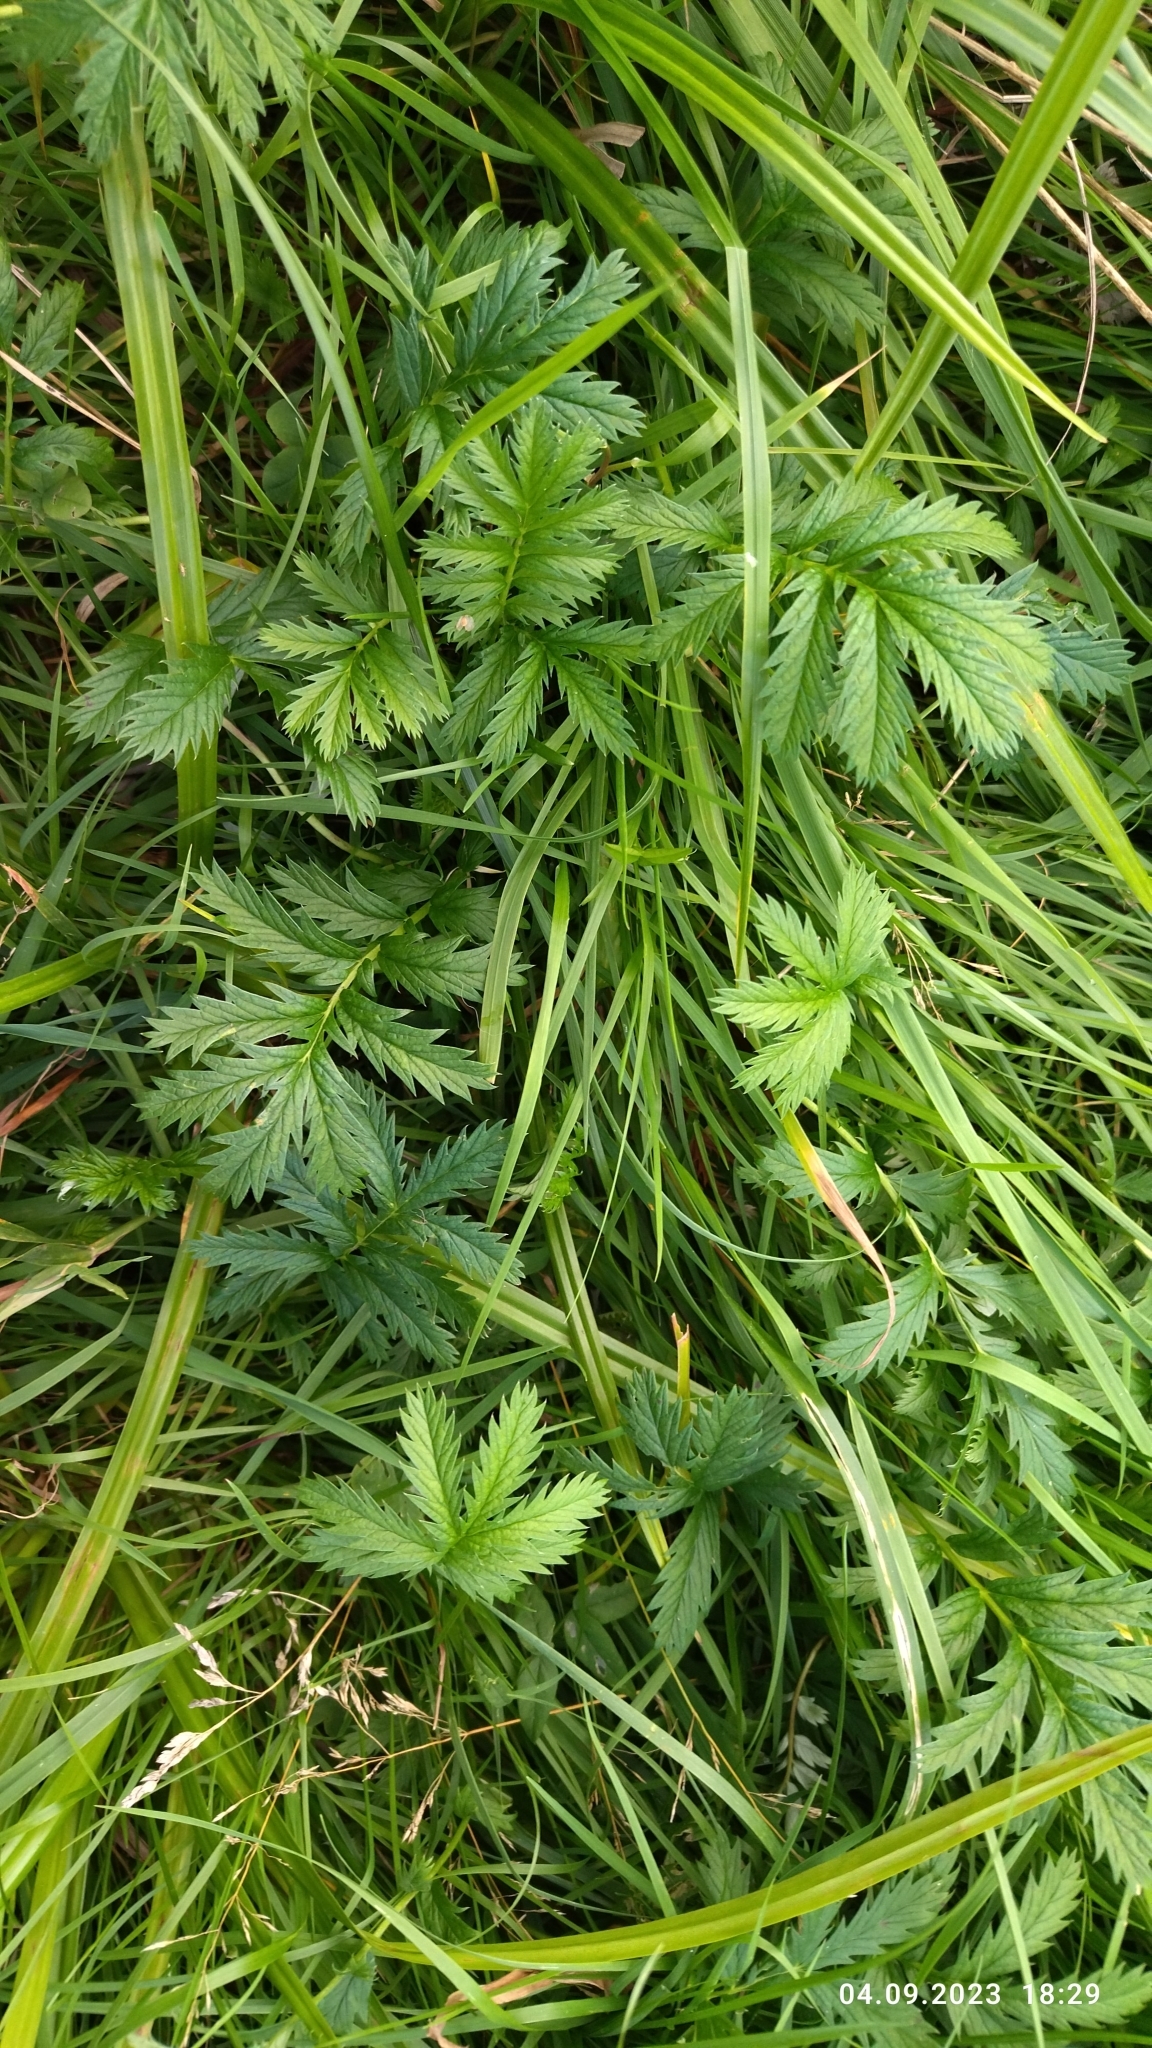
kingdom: Plantae
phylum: Tracheophyta
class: Magnoliopsida
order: Rosales
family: Rosaceae
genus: Argentina
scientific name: Argentina anserina
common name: Common silverweed
